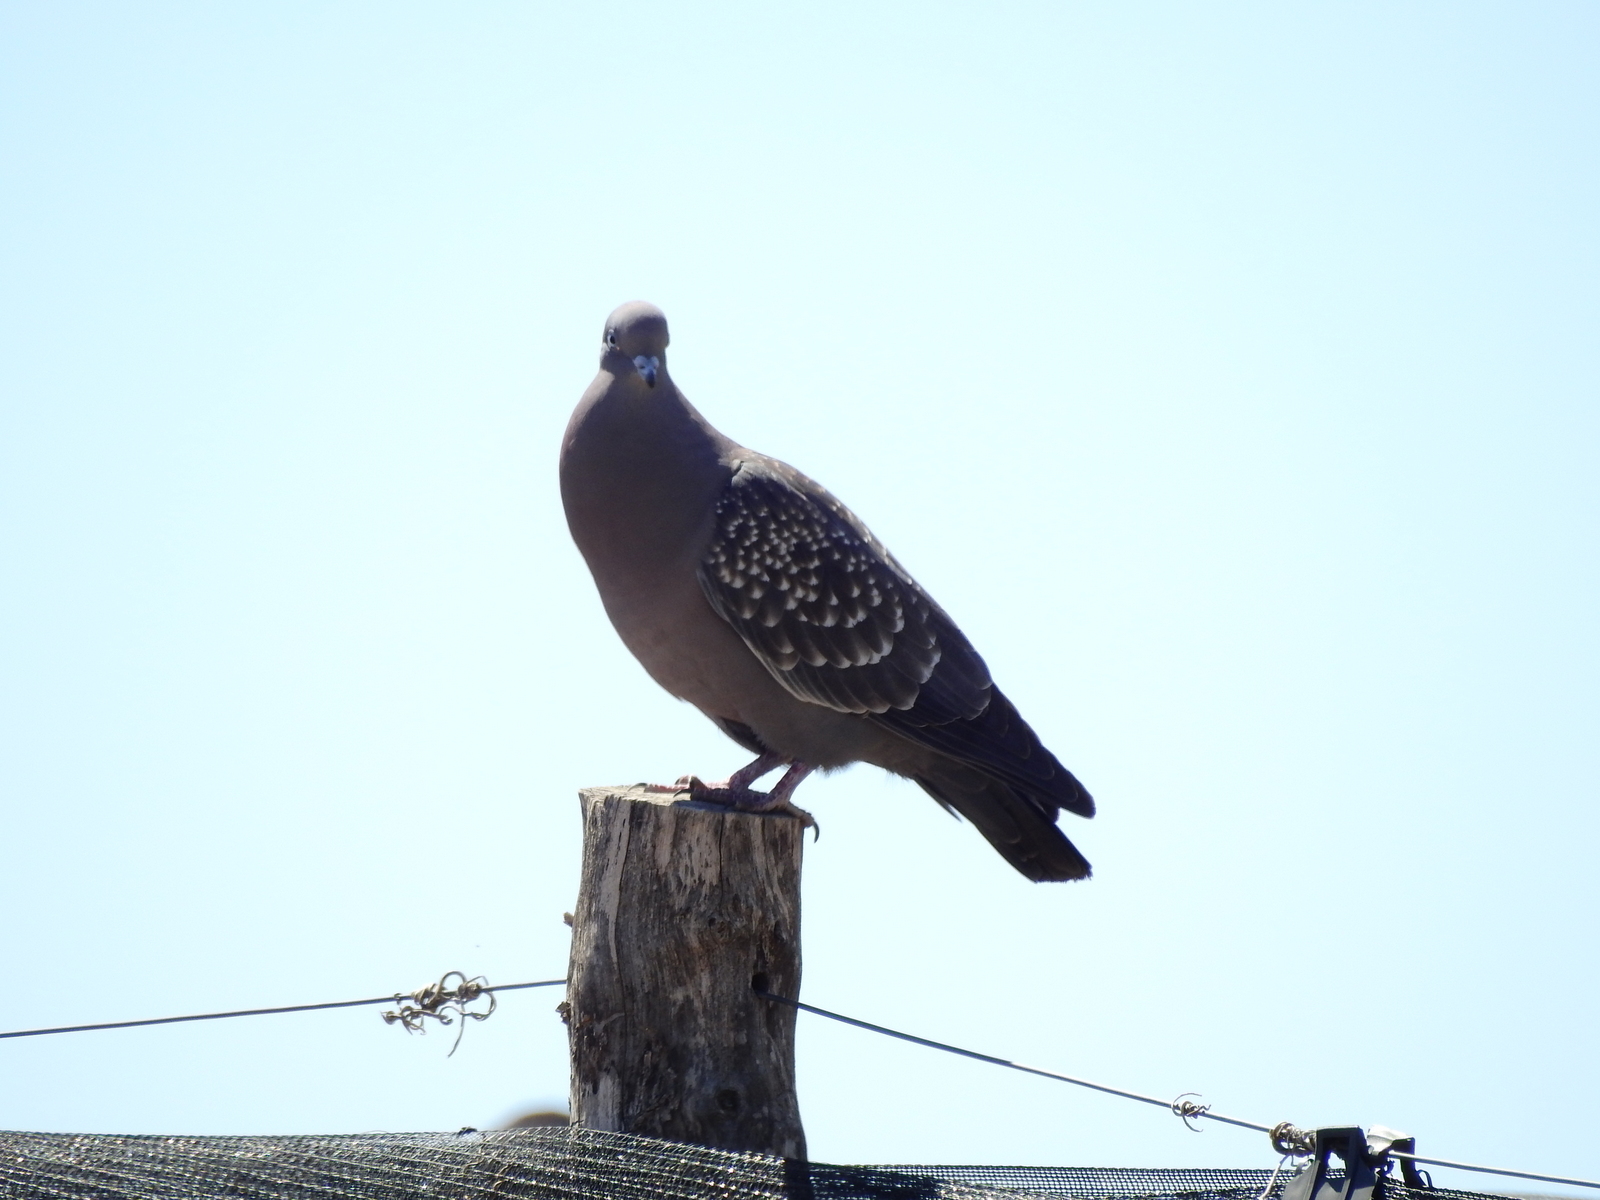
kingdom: Animalia
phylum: Chordata
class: Aves
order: Columbiformes
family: Columbidae
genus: Patagioenas
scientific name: Patagioenas maculosa
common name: Spot-winged pigeon
